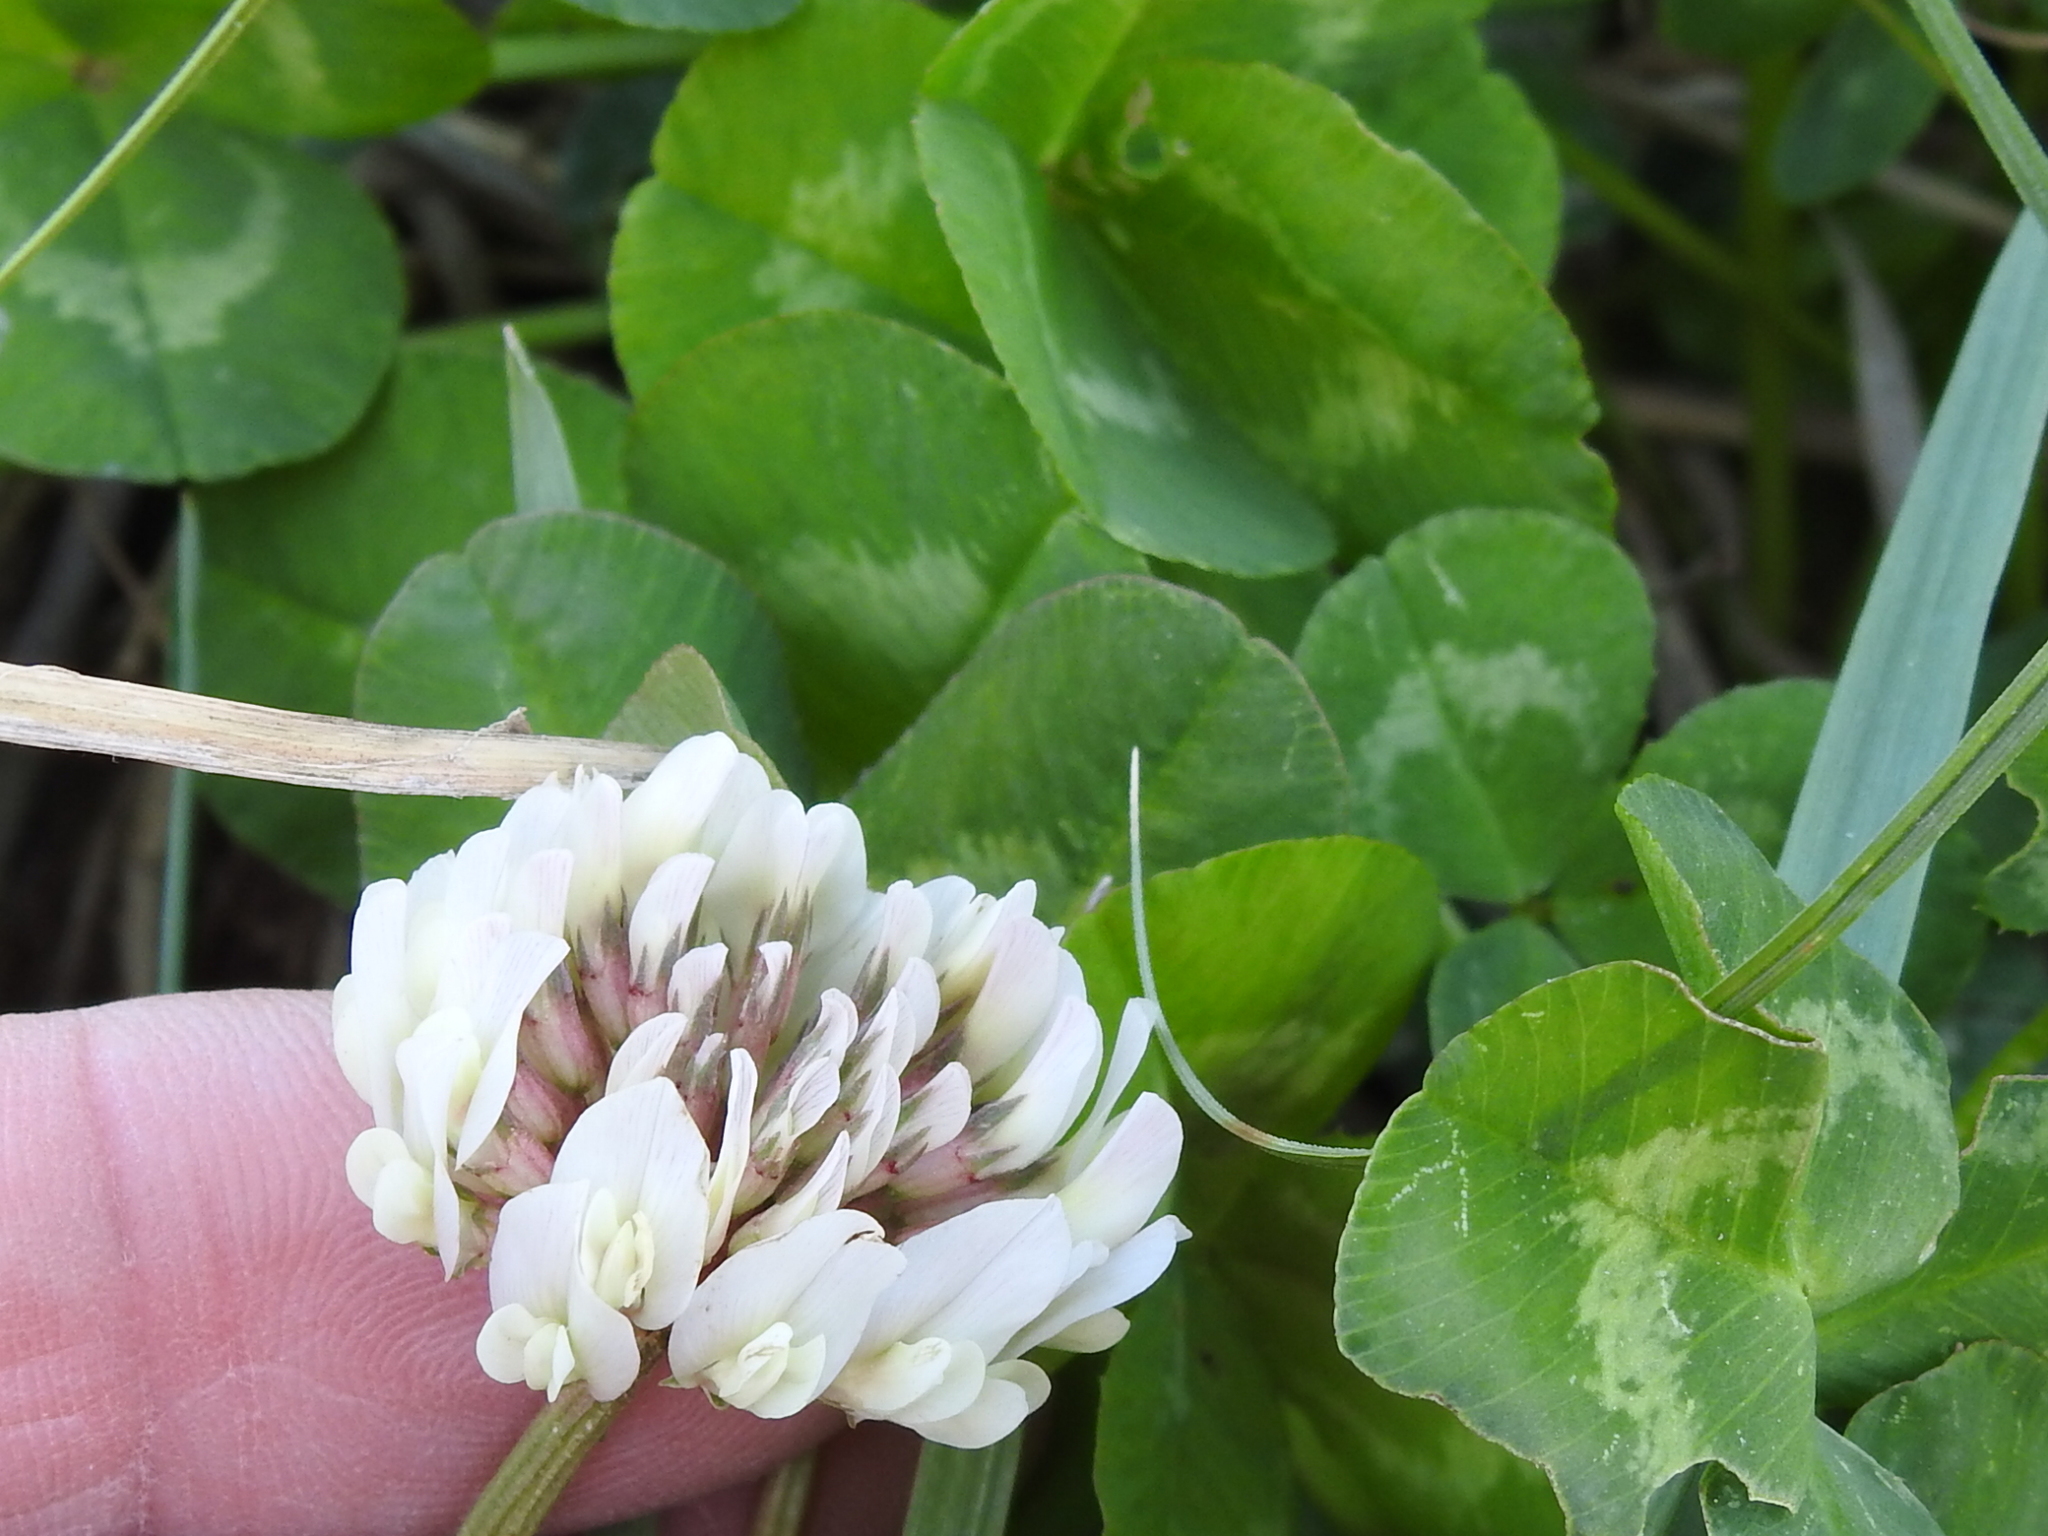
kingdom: Plantae
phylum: Tracheophyta
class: Magnoliopsida
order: Fabales
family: Fabaceae
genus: Trifolium
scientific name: Trifolium repens
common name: White clover
